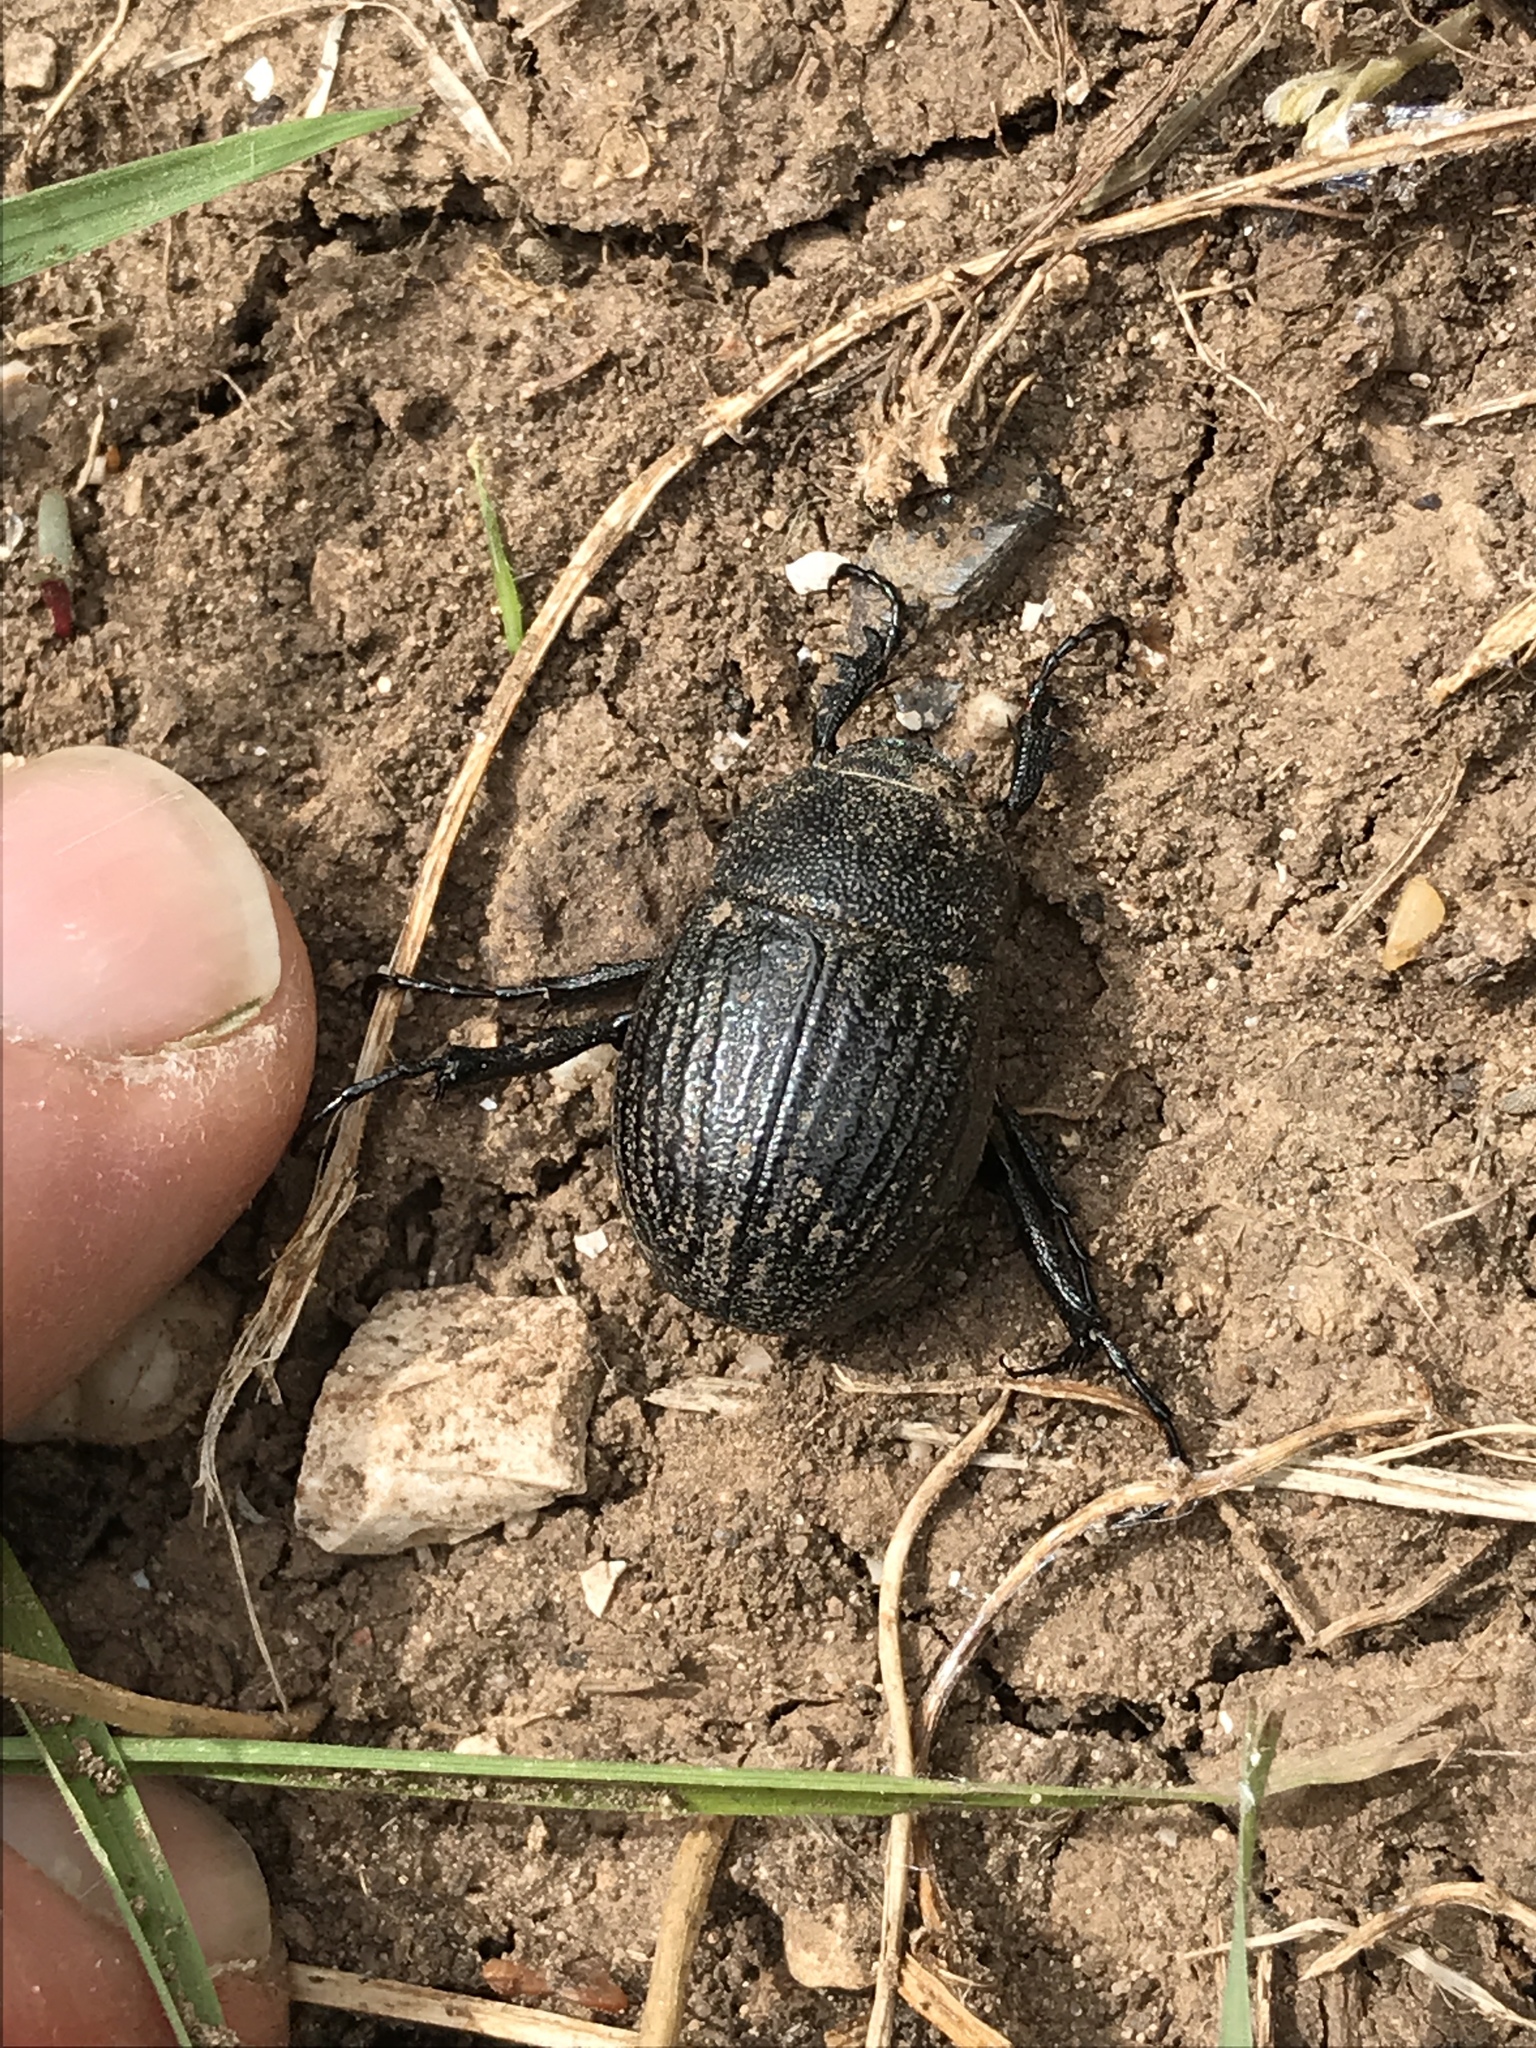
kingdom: Animalia
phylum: Arthropoda
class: Insecta
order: Coleoptera
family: Scarabaeidae
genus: Phyllophaga
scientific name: Phyllophaga cribrosa
